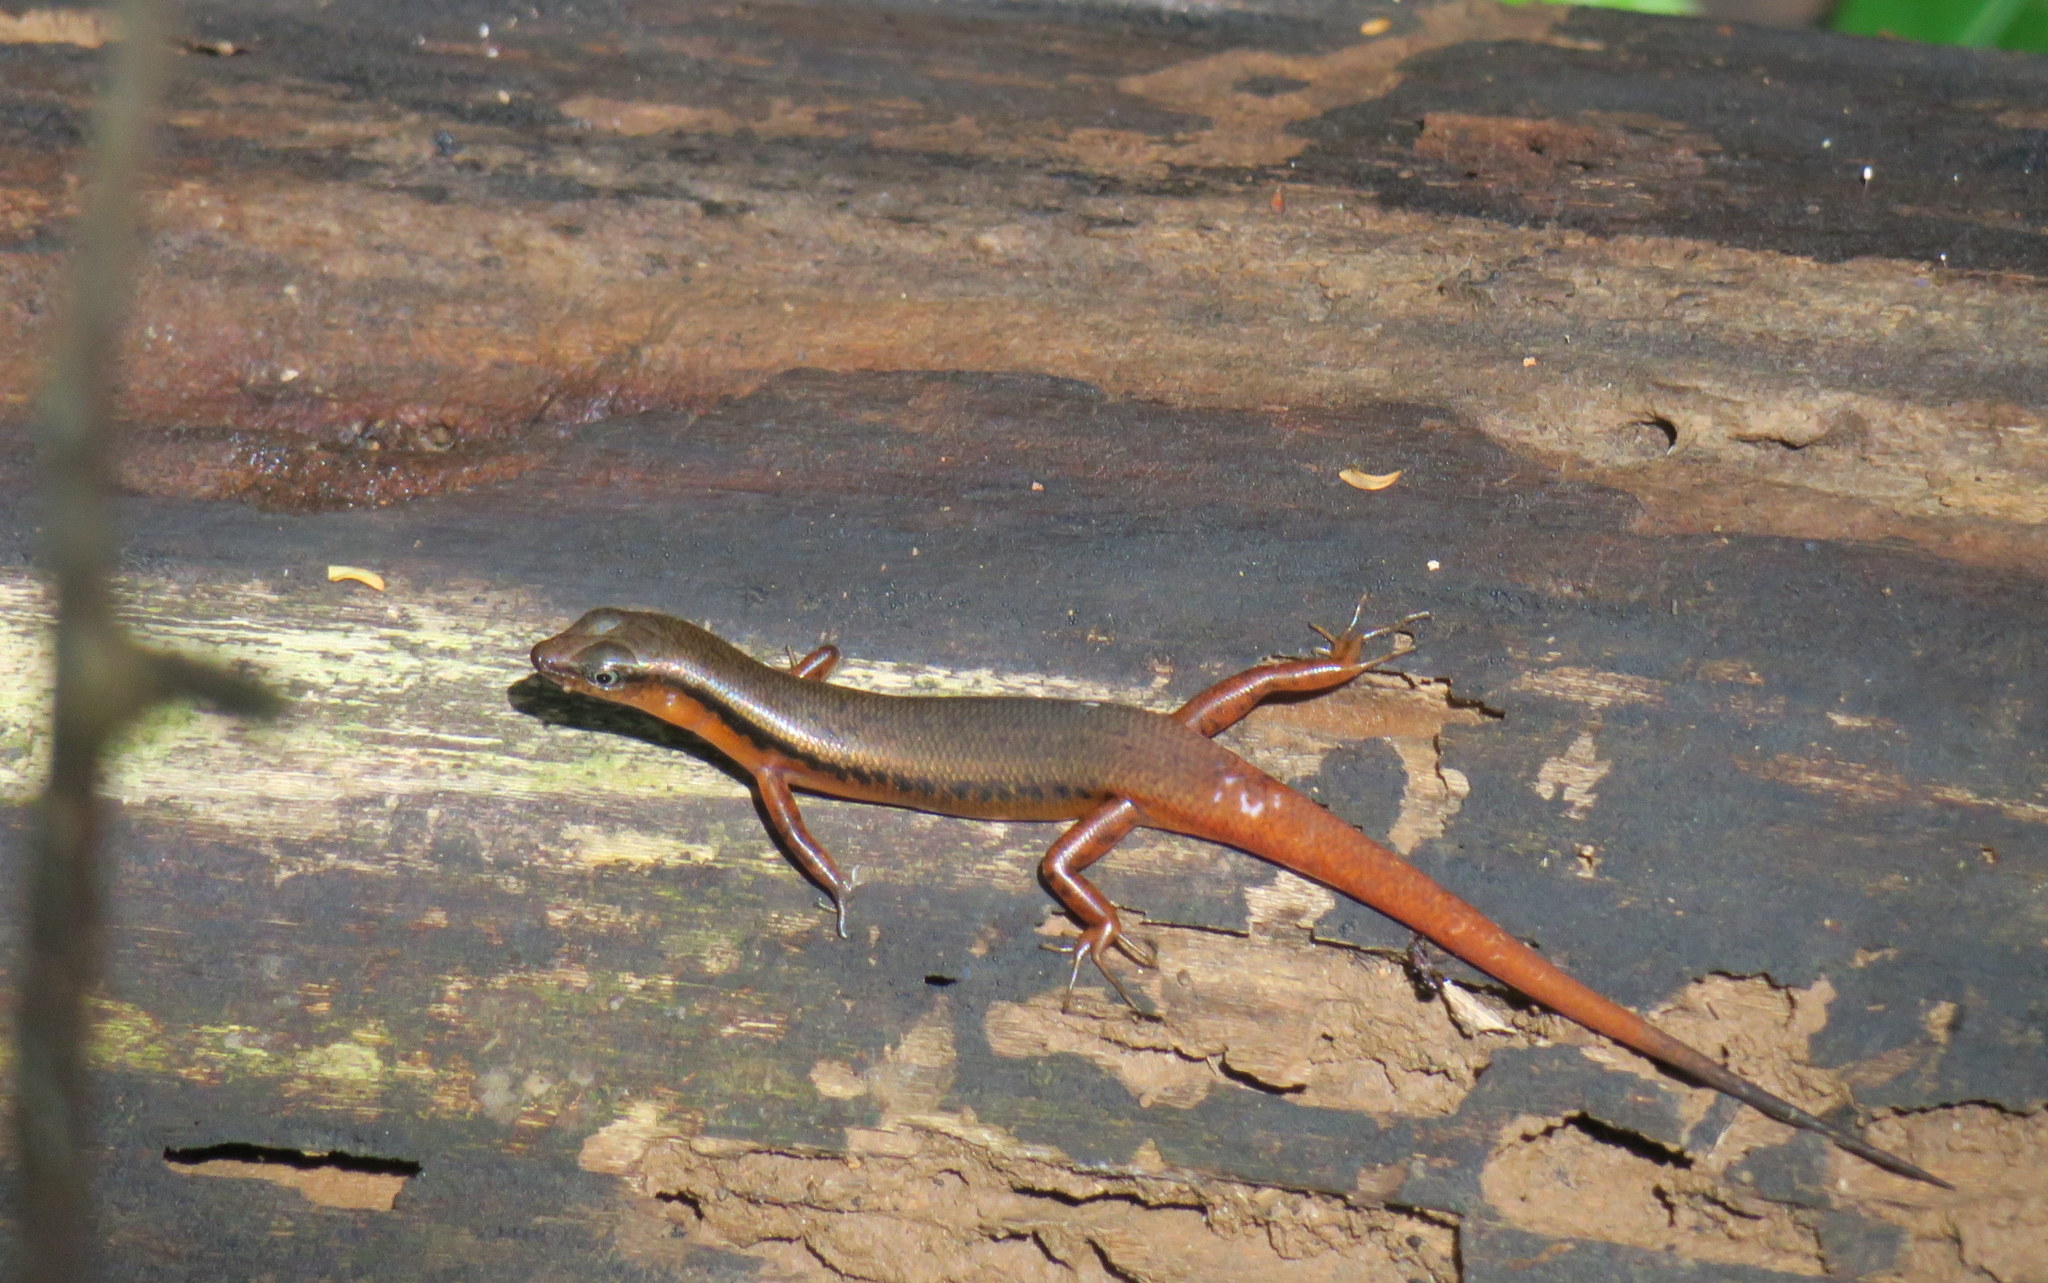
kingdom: Animalia
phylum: Chordata
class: Squamata
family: Scincidae
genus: Scincella
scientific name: Scincella rufocaudata
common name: Red-tailed ground skink
